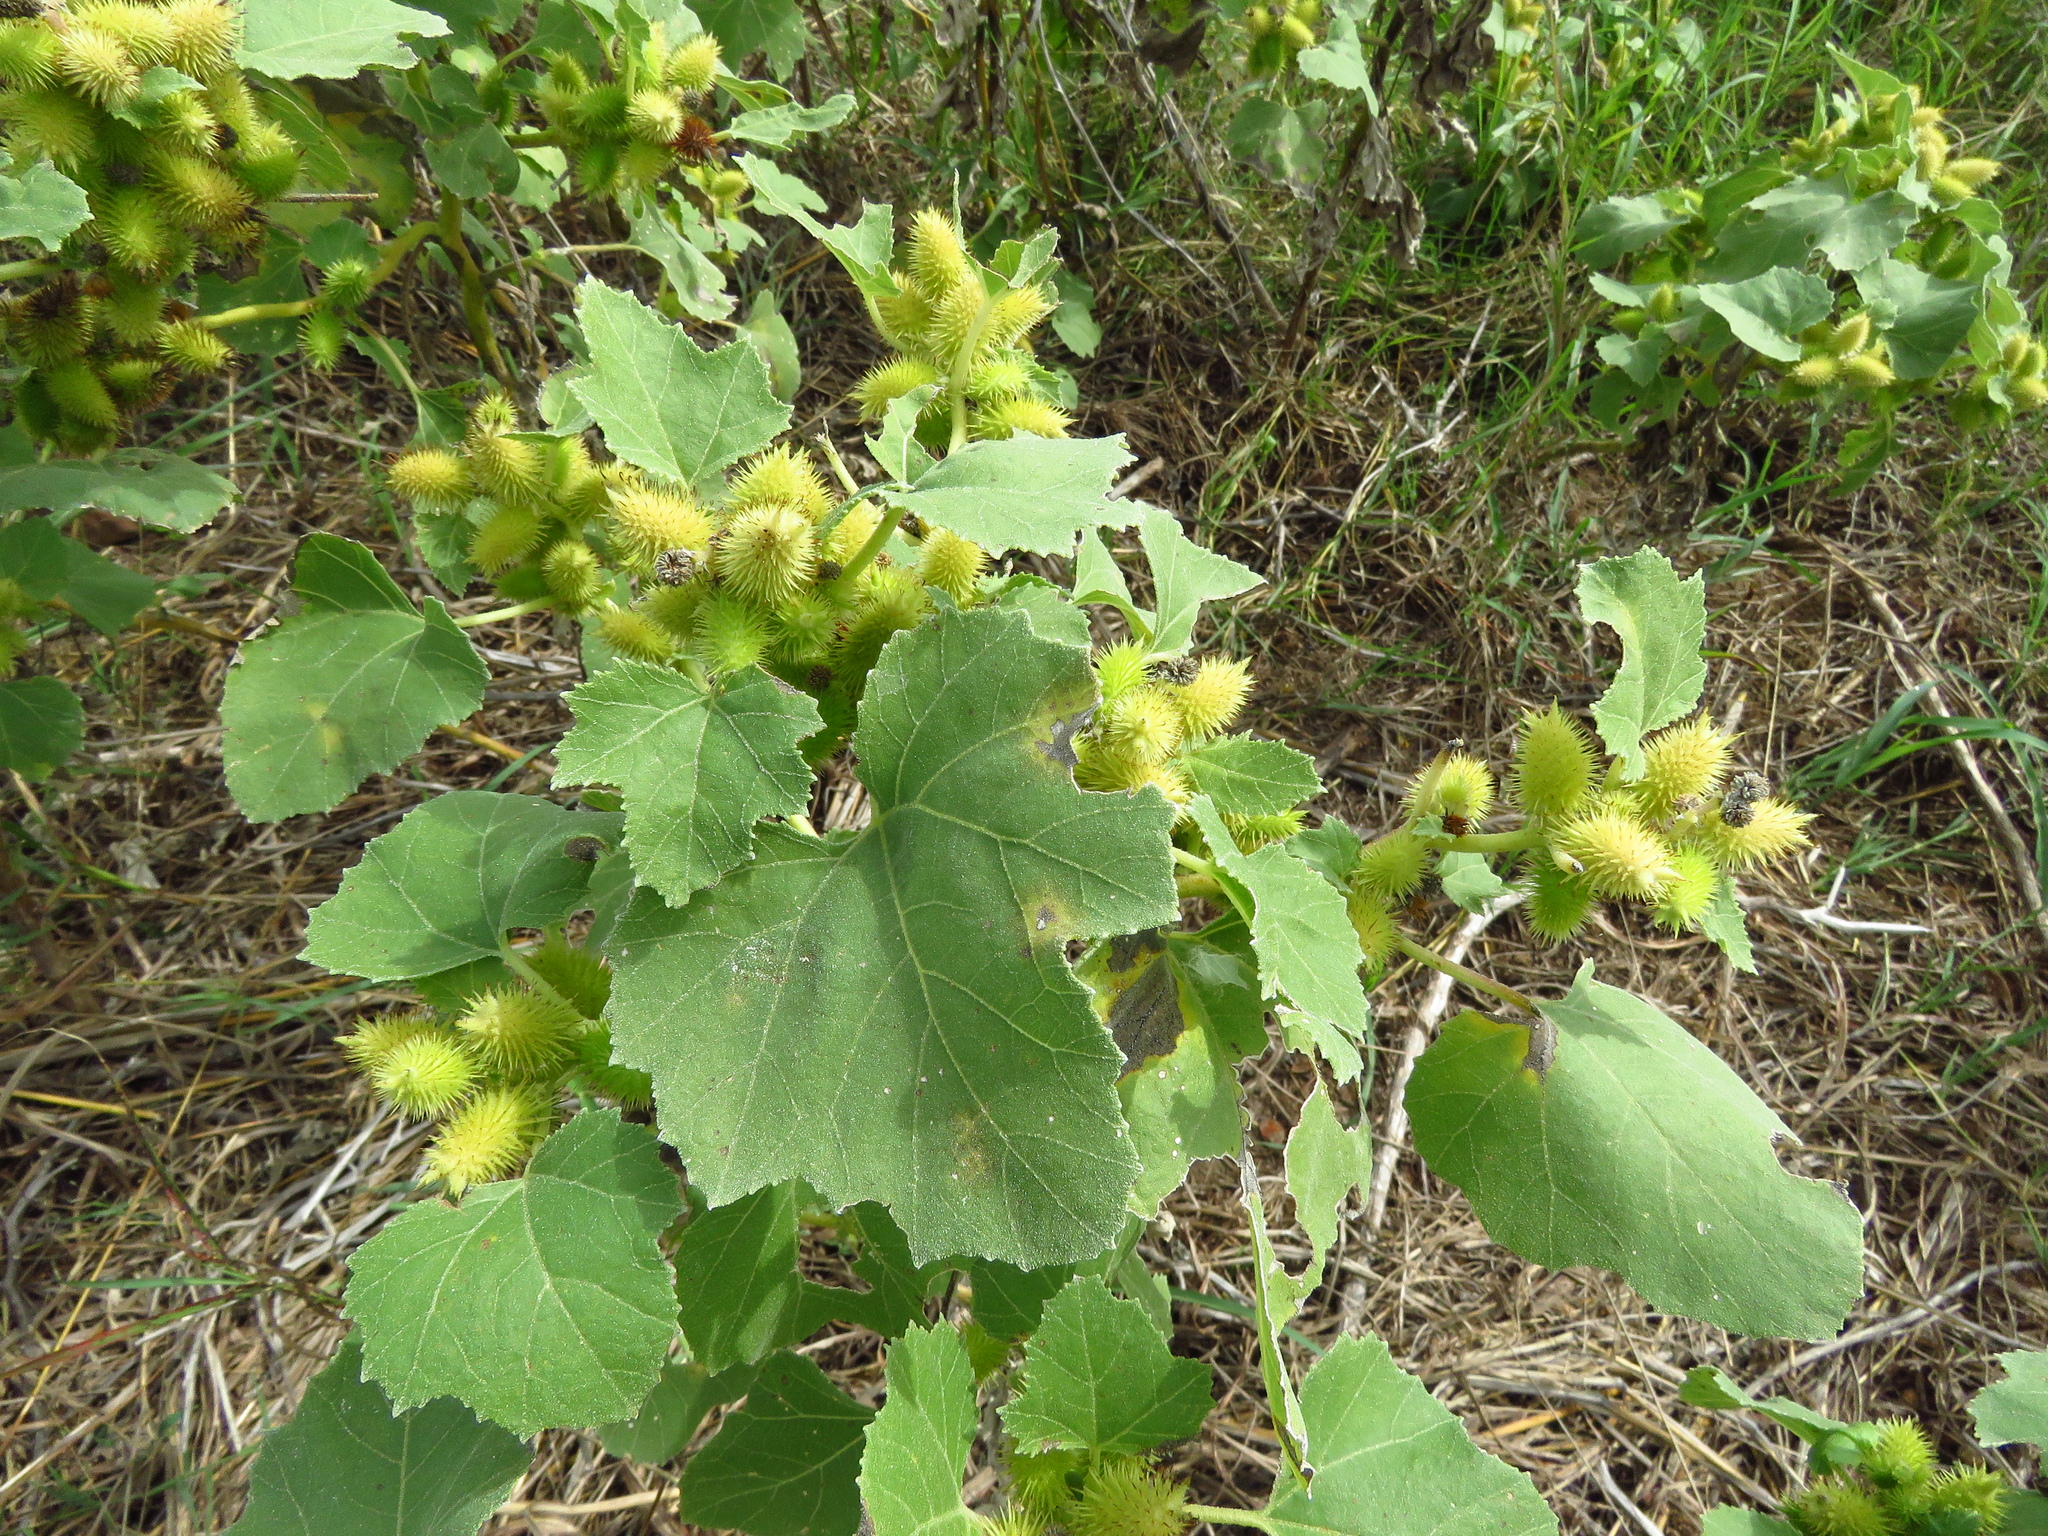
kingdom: Plantae
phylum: Tracheophyta
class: Magnoliopsida
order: Asterales
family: Asteraceae
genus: Xanthium
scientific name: Xanthium strumarium
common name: Rough cocklebur
